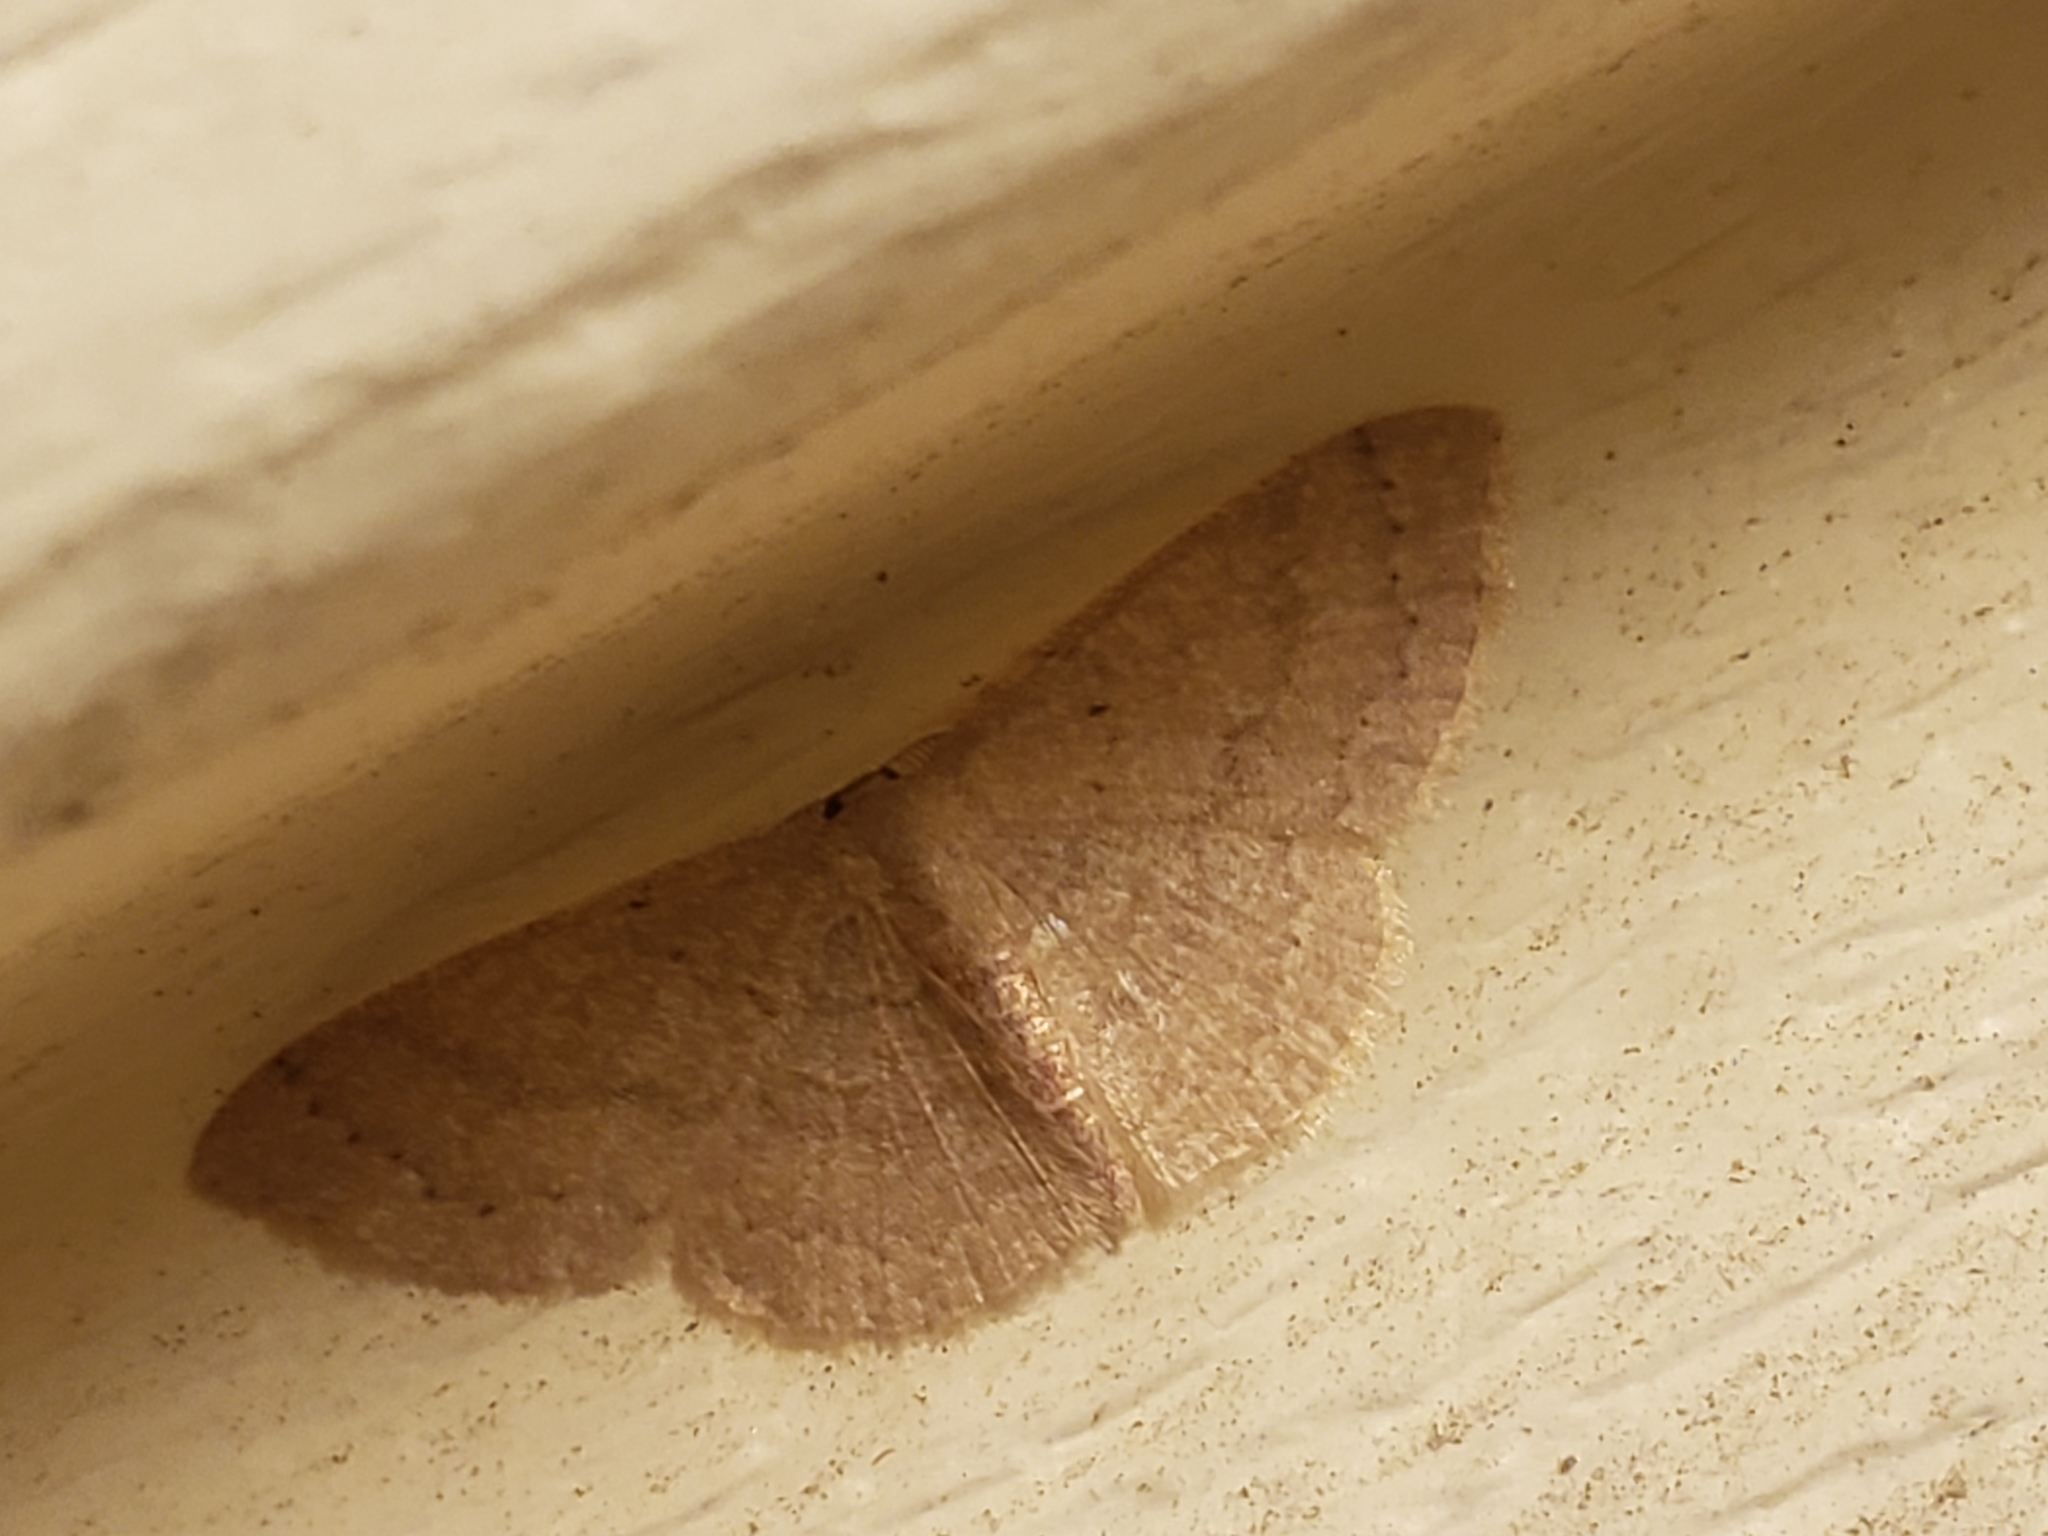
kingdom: Animalia
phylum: Arthropoda
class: Insecta
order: Lepidoptera
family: Geometridae
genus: Pleuroprucha
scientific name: Pleuroprucha insulsaria
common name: Common tan wave
